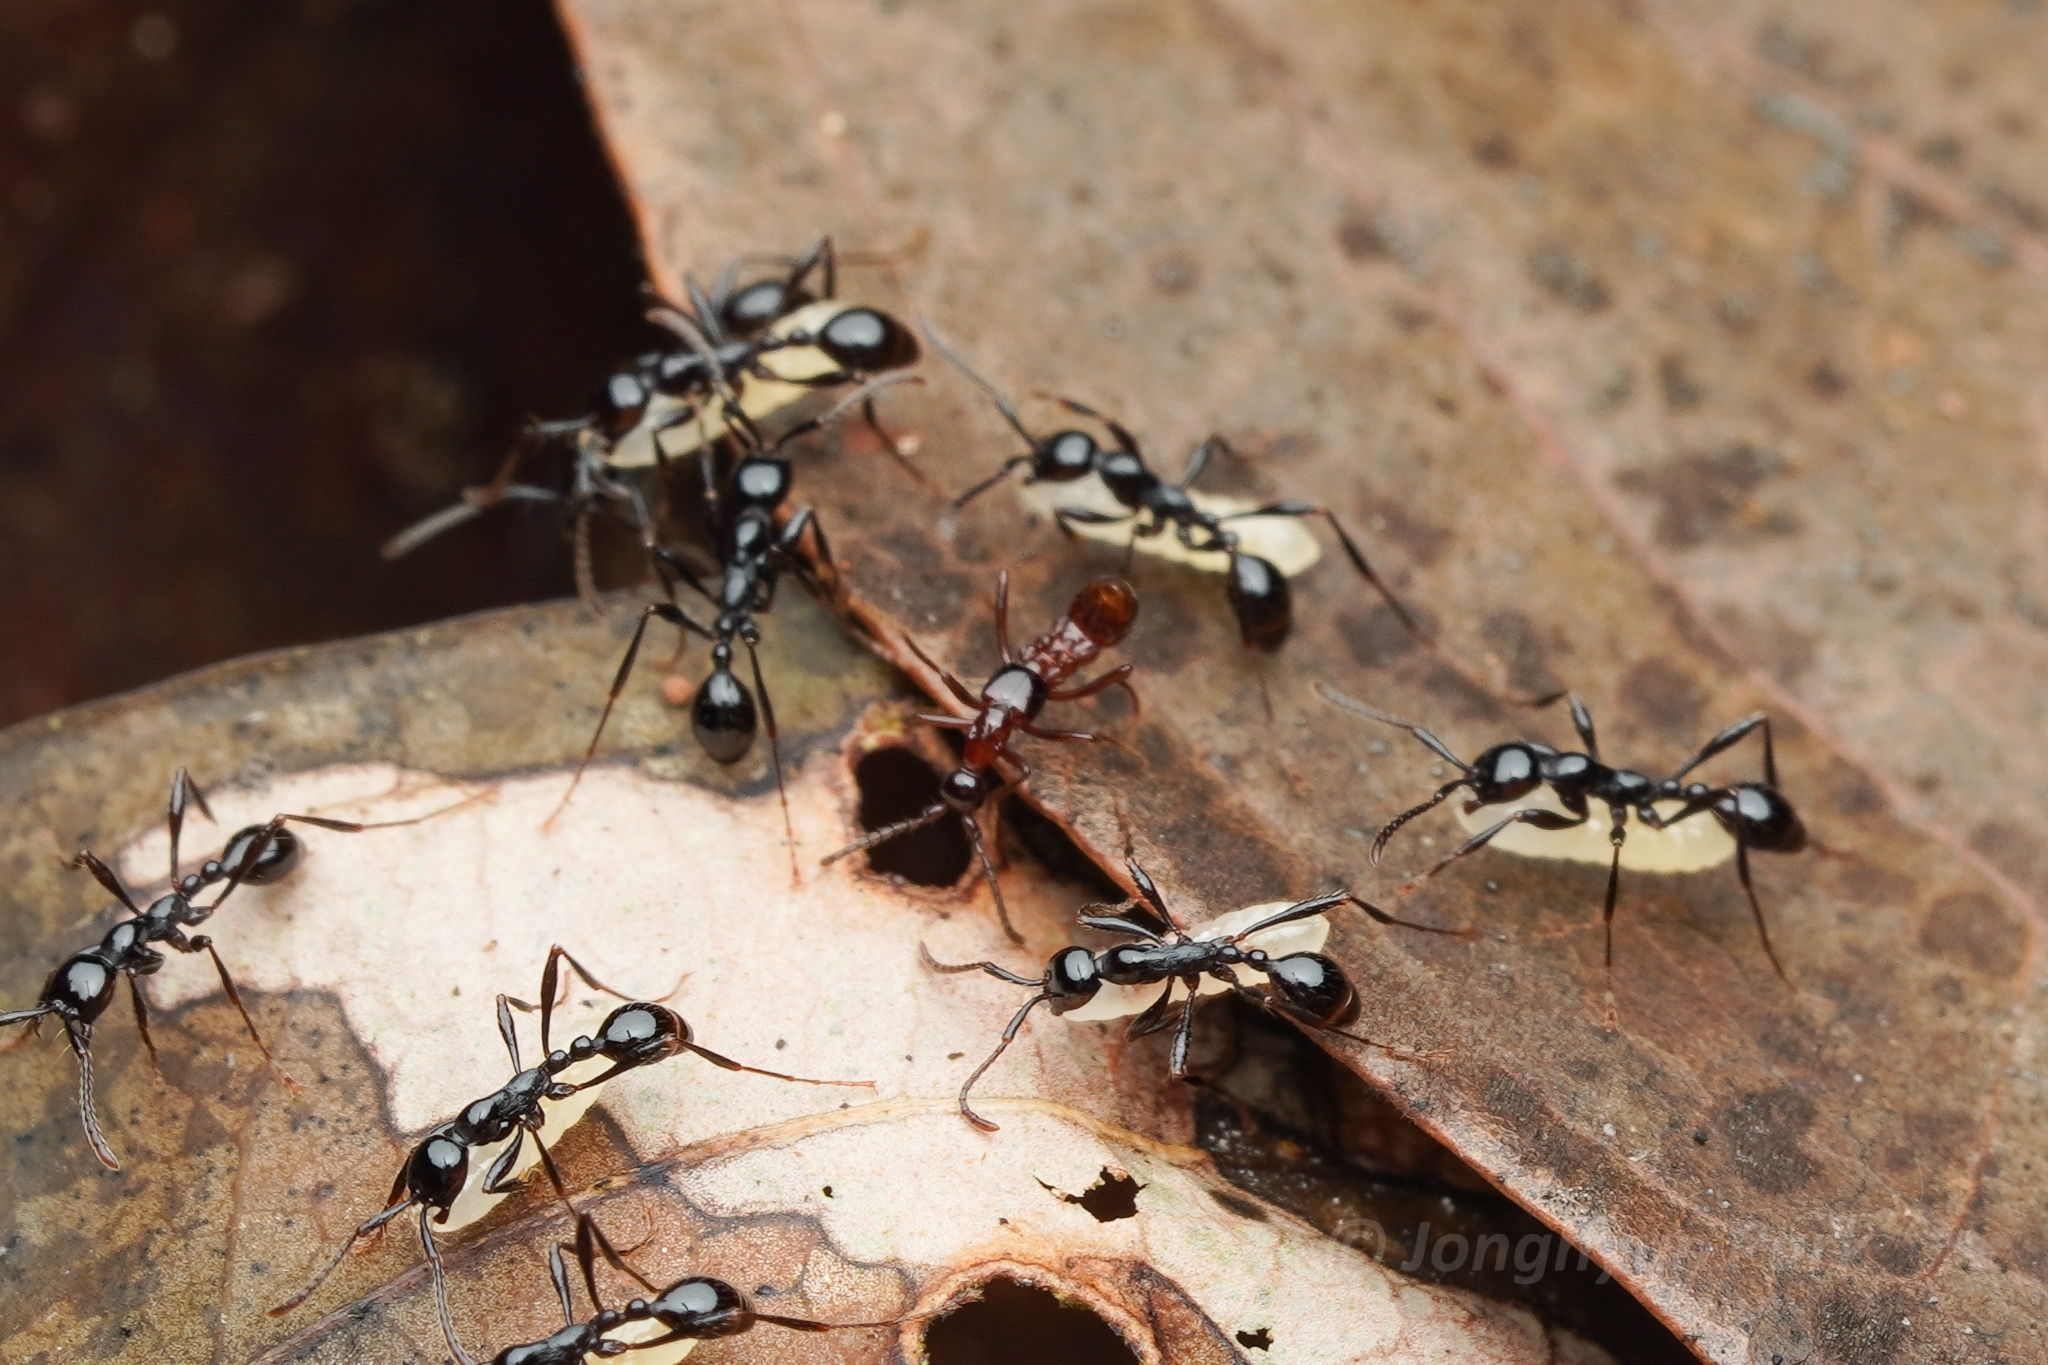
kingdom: Animalia
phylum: Arthropoda
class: Insecta
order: Coleoptera
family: Staphylinidae
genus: Mimaenictus
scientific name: Mimaenictus matsumotoi
